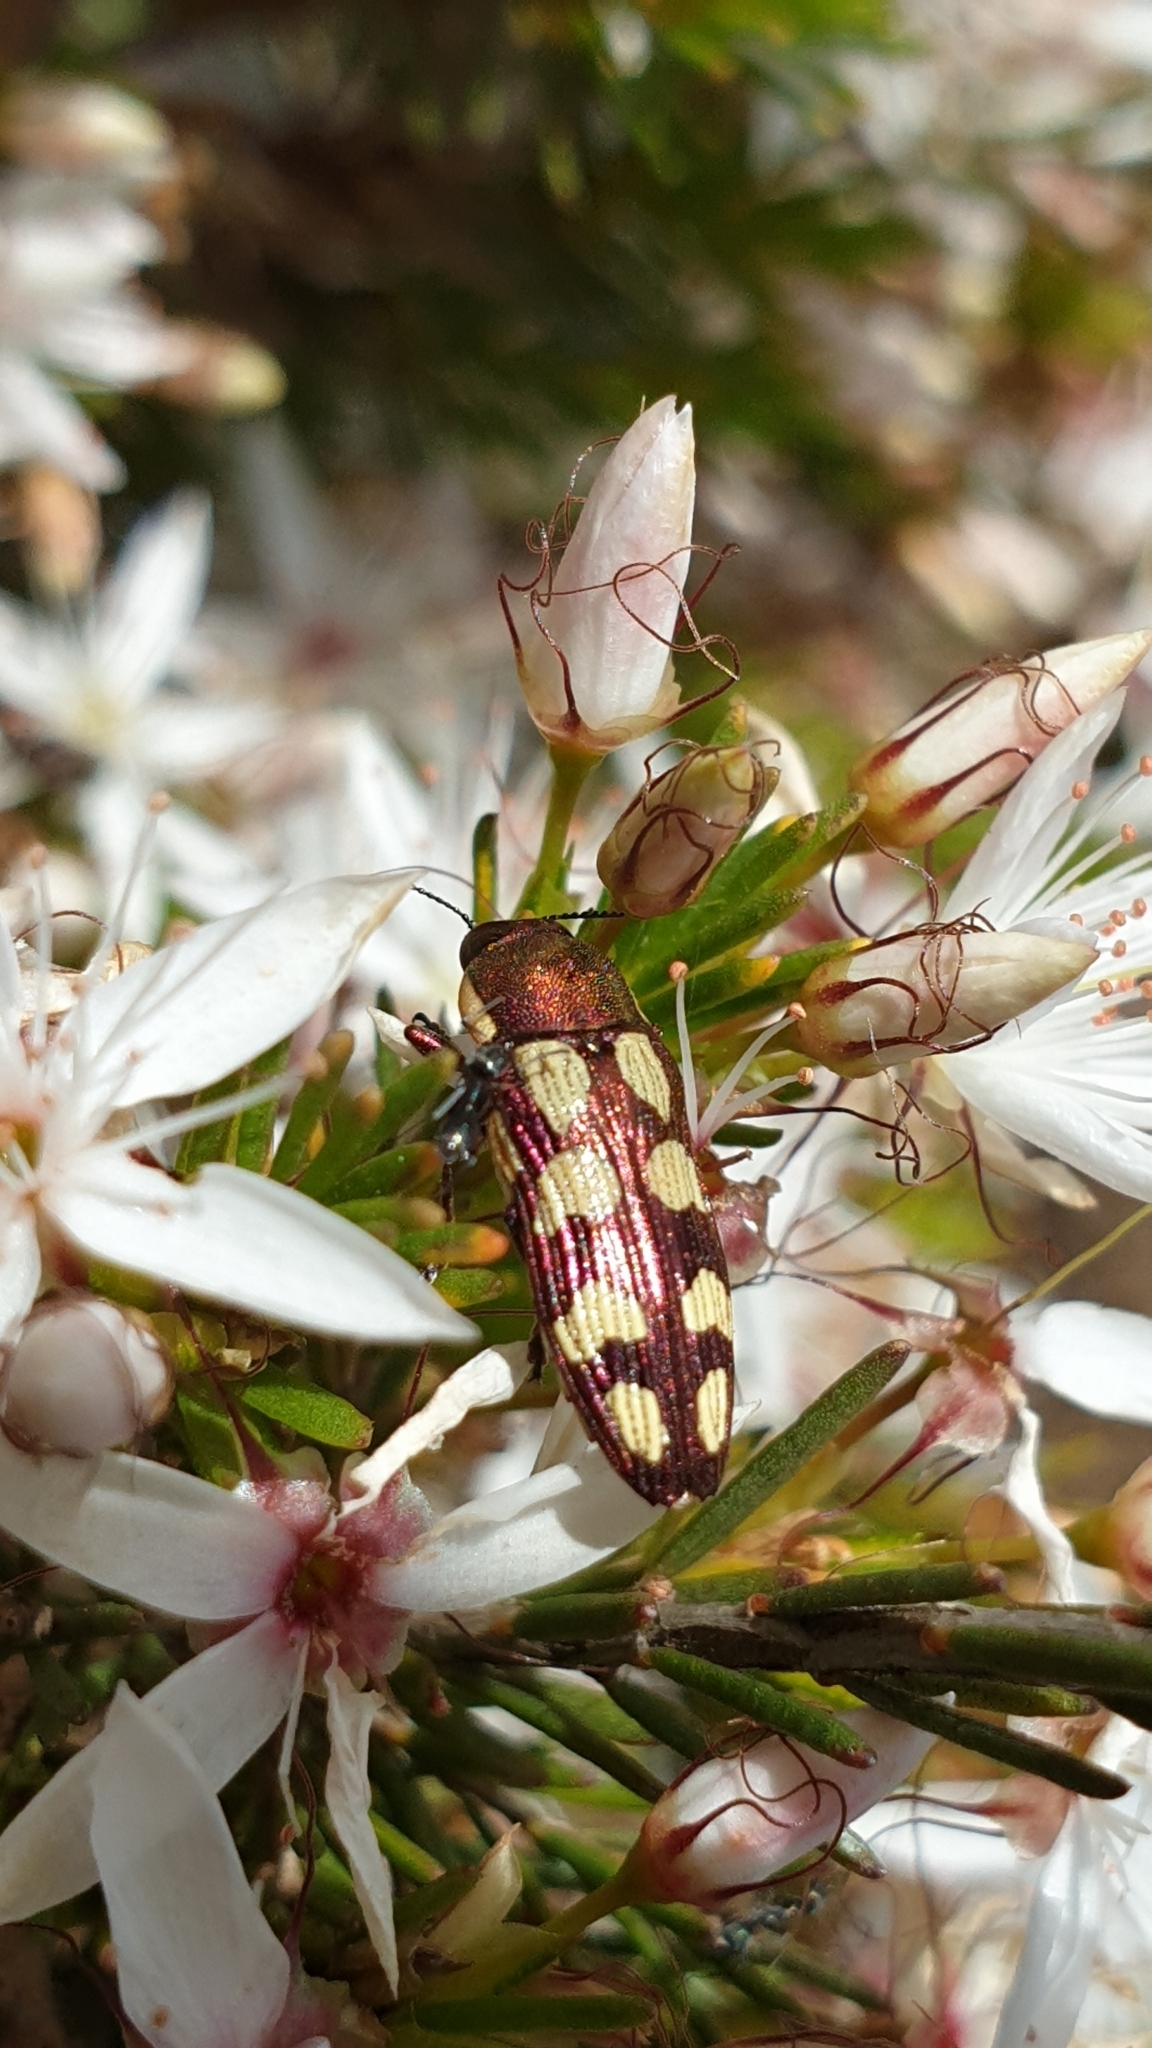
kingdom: Animalia
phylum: Arthropoda
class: Insecta
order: Coleoptera
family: Buprestidae
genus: Castiarina
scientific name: Castiarina decemmaculata
